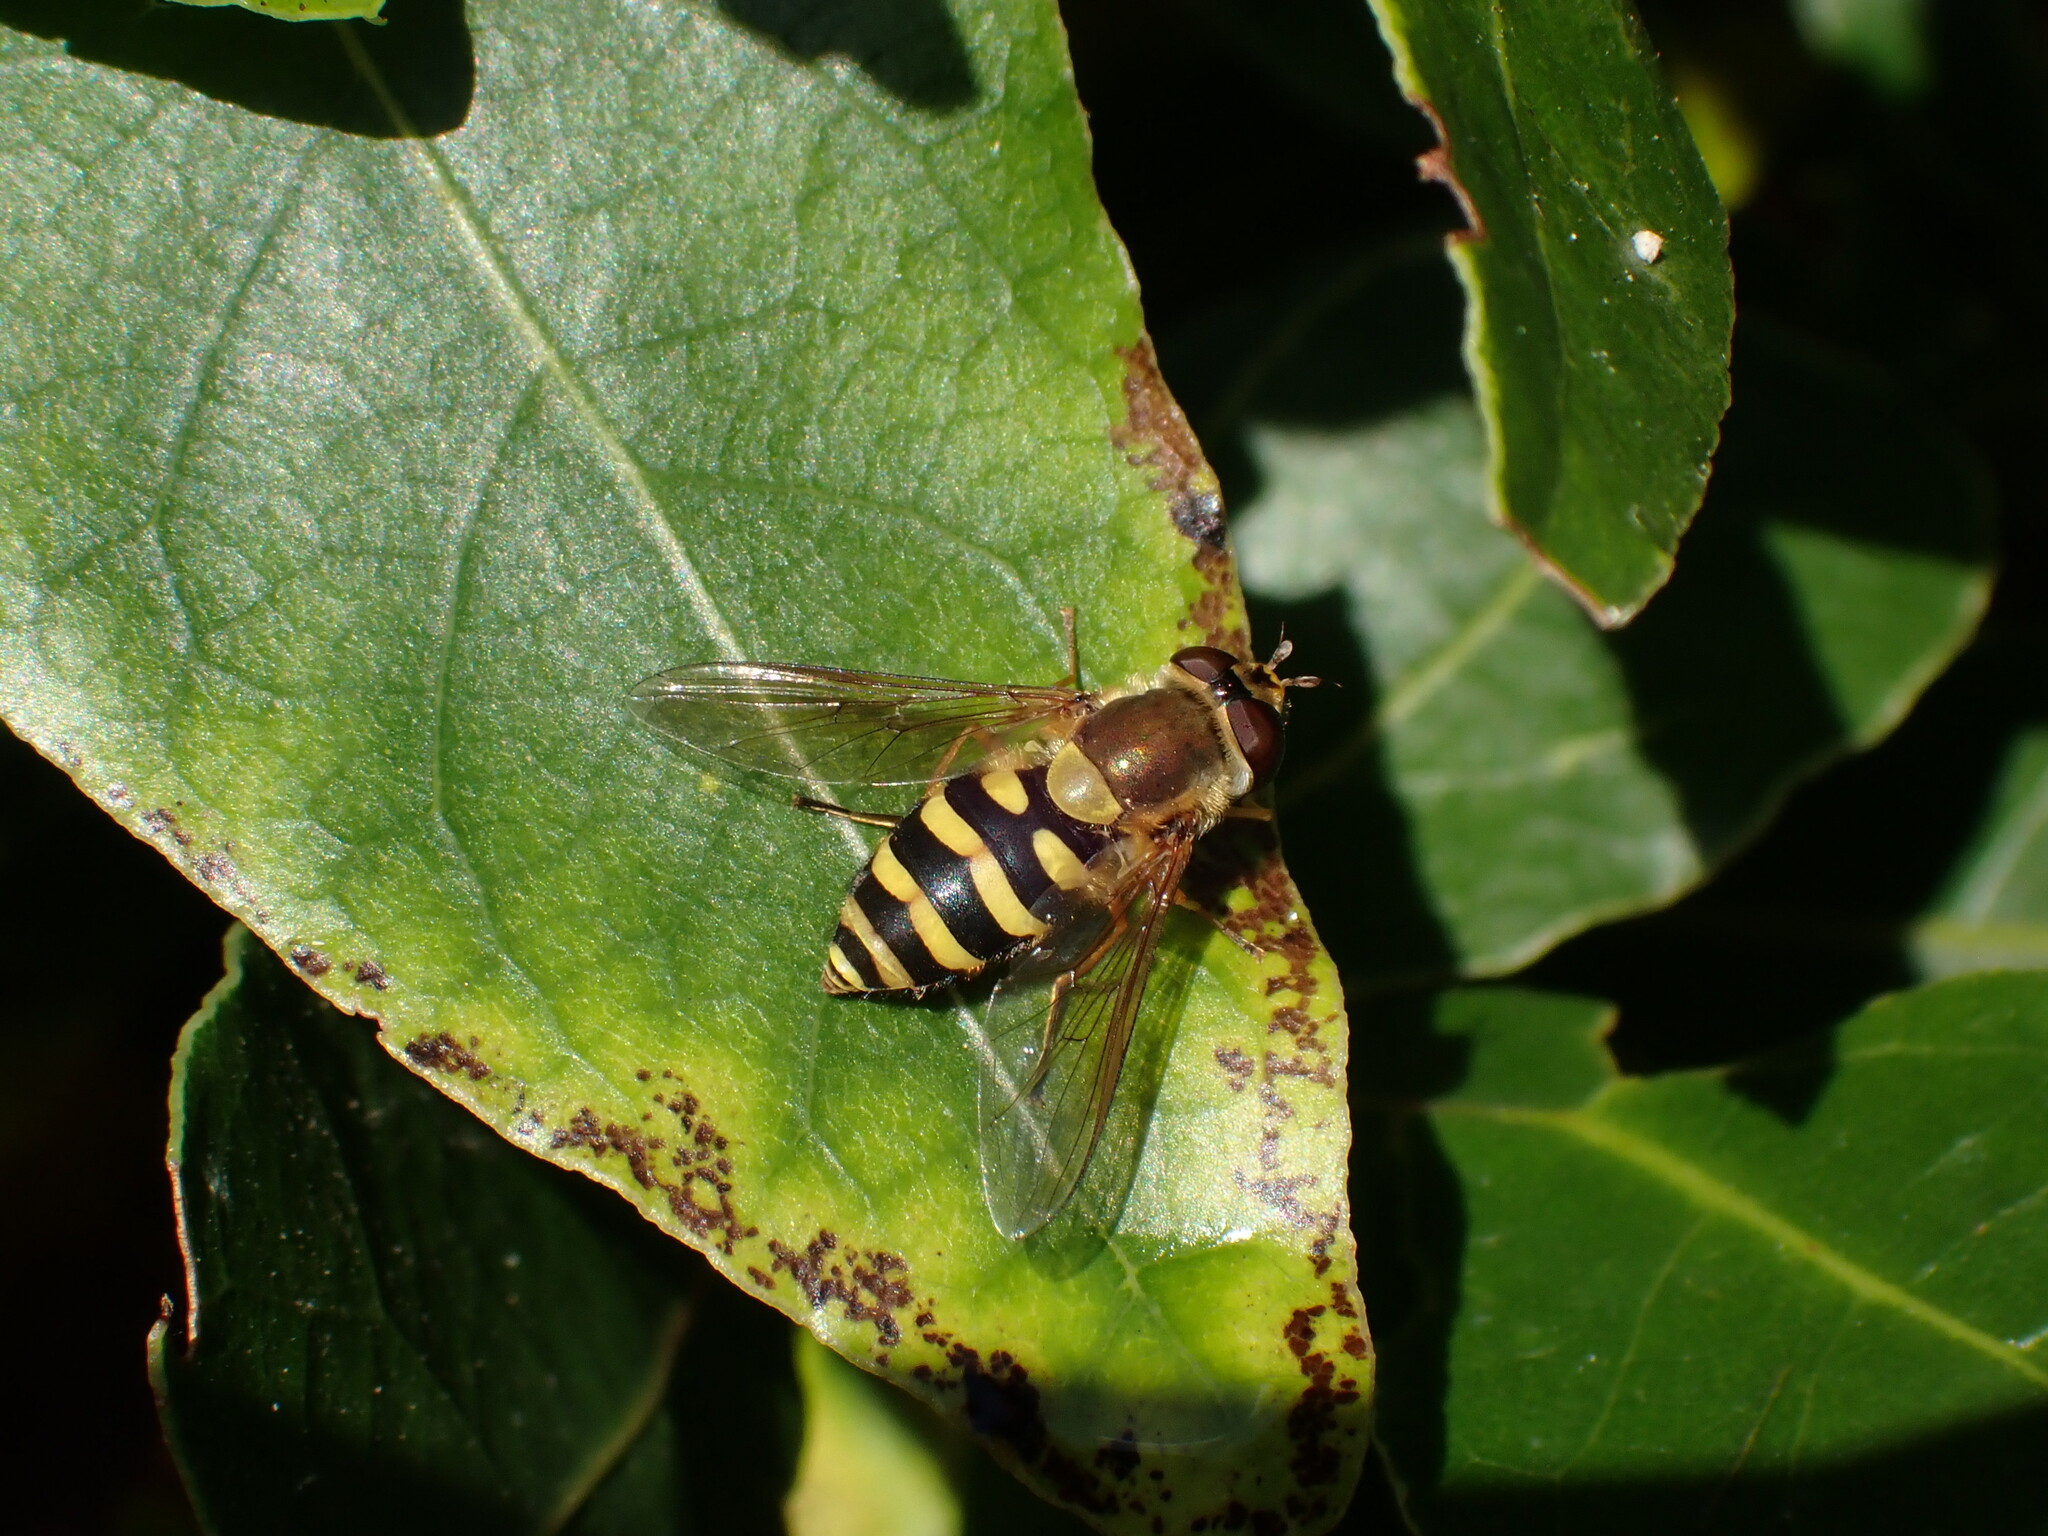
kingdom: Animalia
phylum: Arthropoda
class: Insecta
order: Diptera
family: Syrphidae
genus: Syrphus
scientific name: Syrphus
